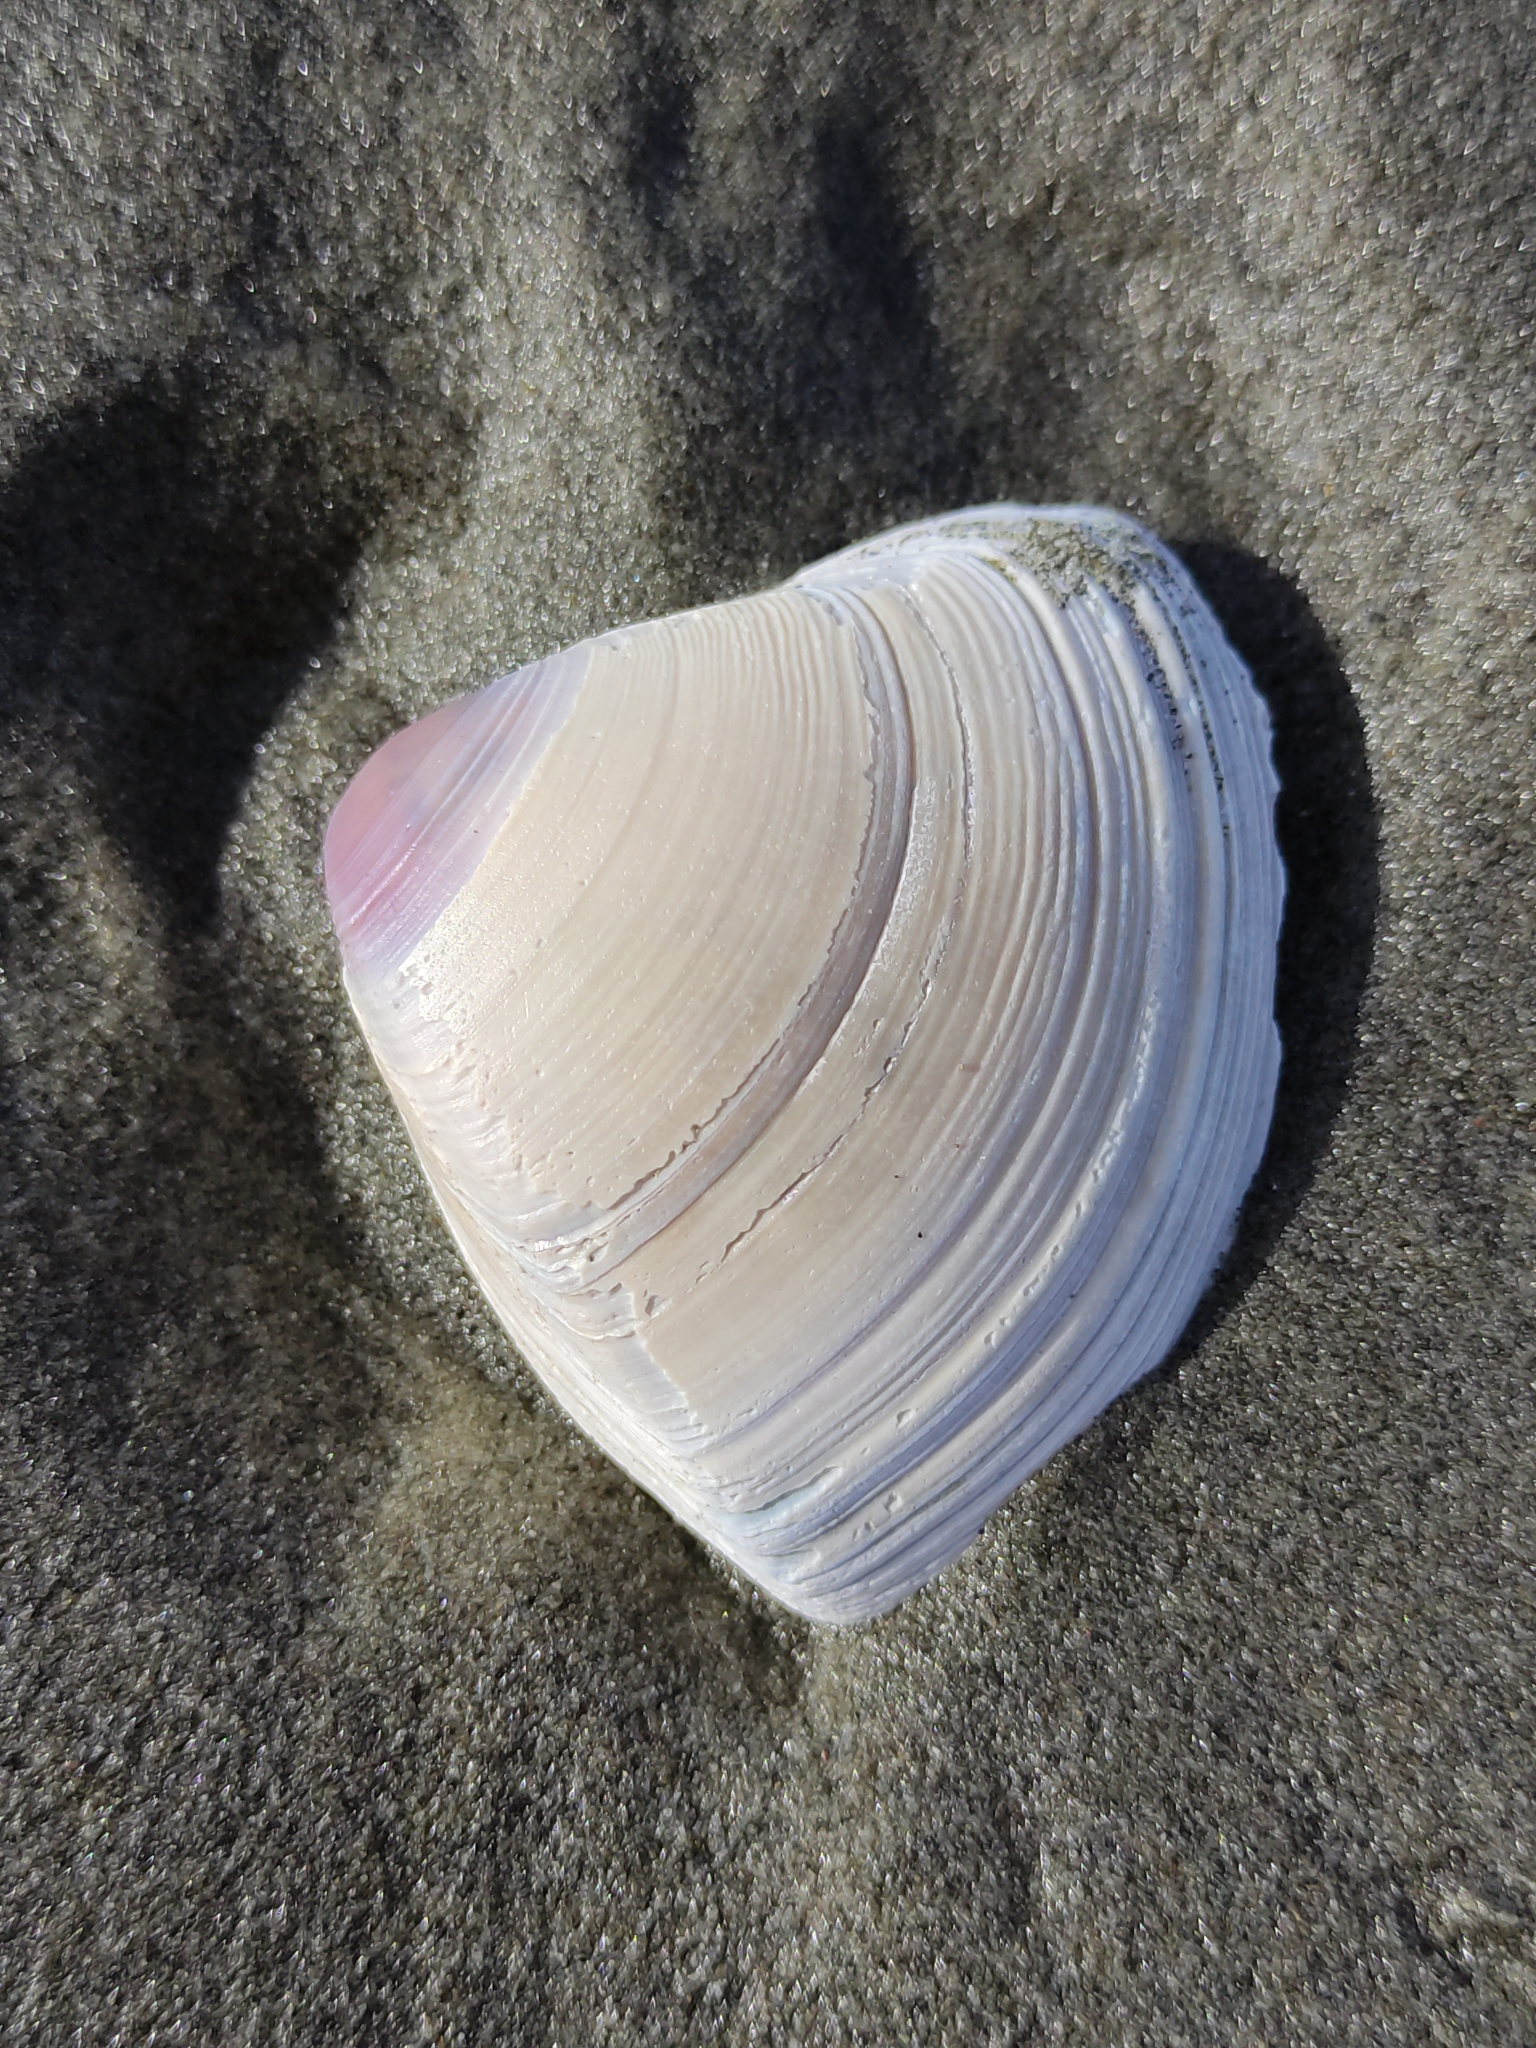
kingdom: Animalia
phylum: Mollusca
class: Bivalvia
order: Venerida
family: Mactridae
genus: Crassula
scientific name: Crassula aequilatera
